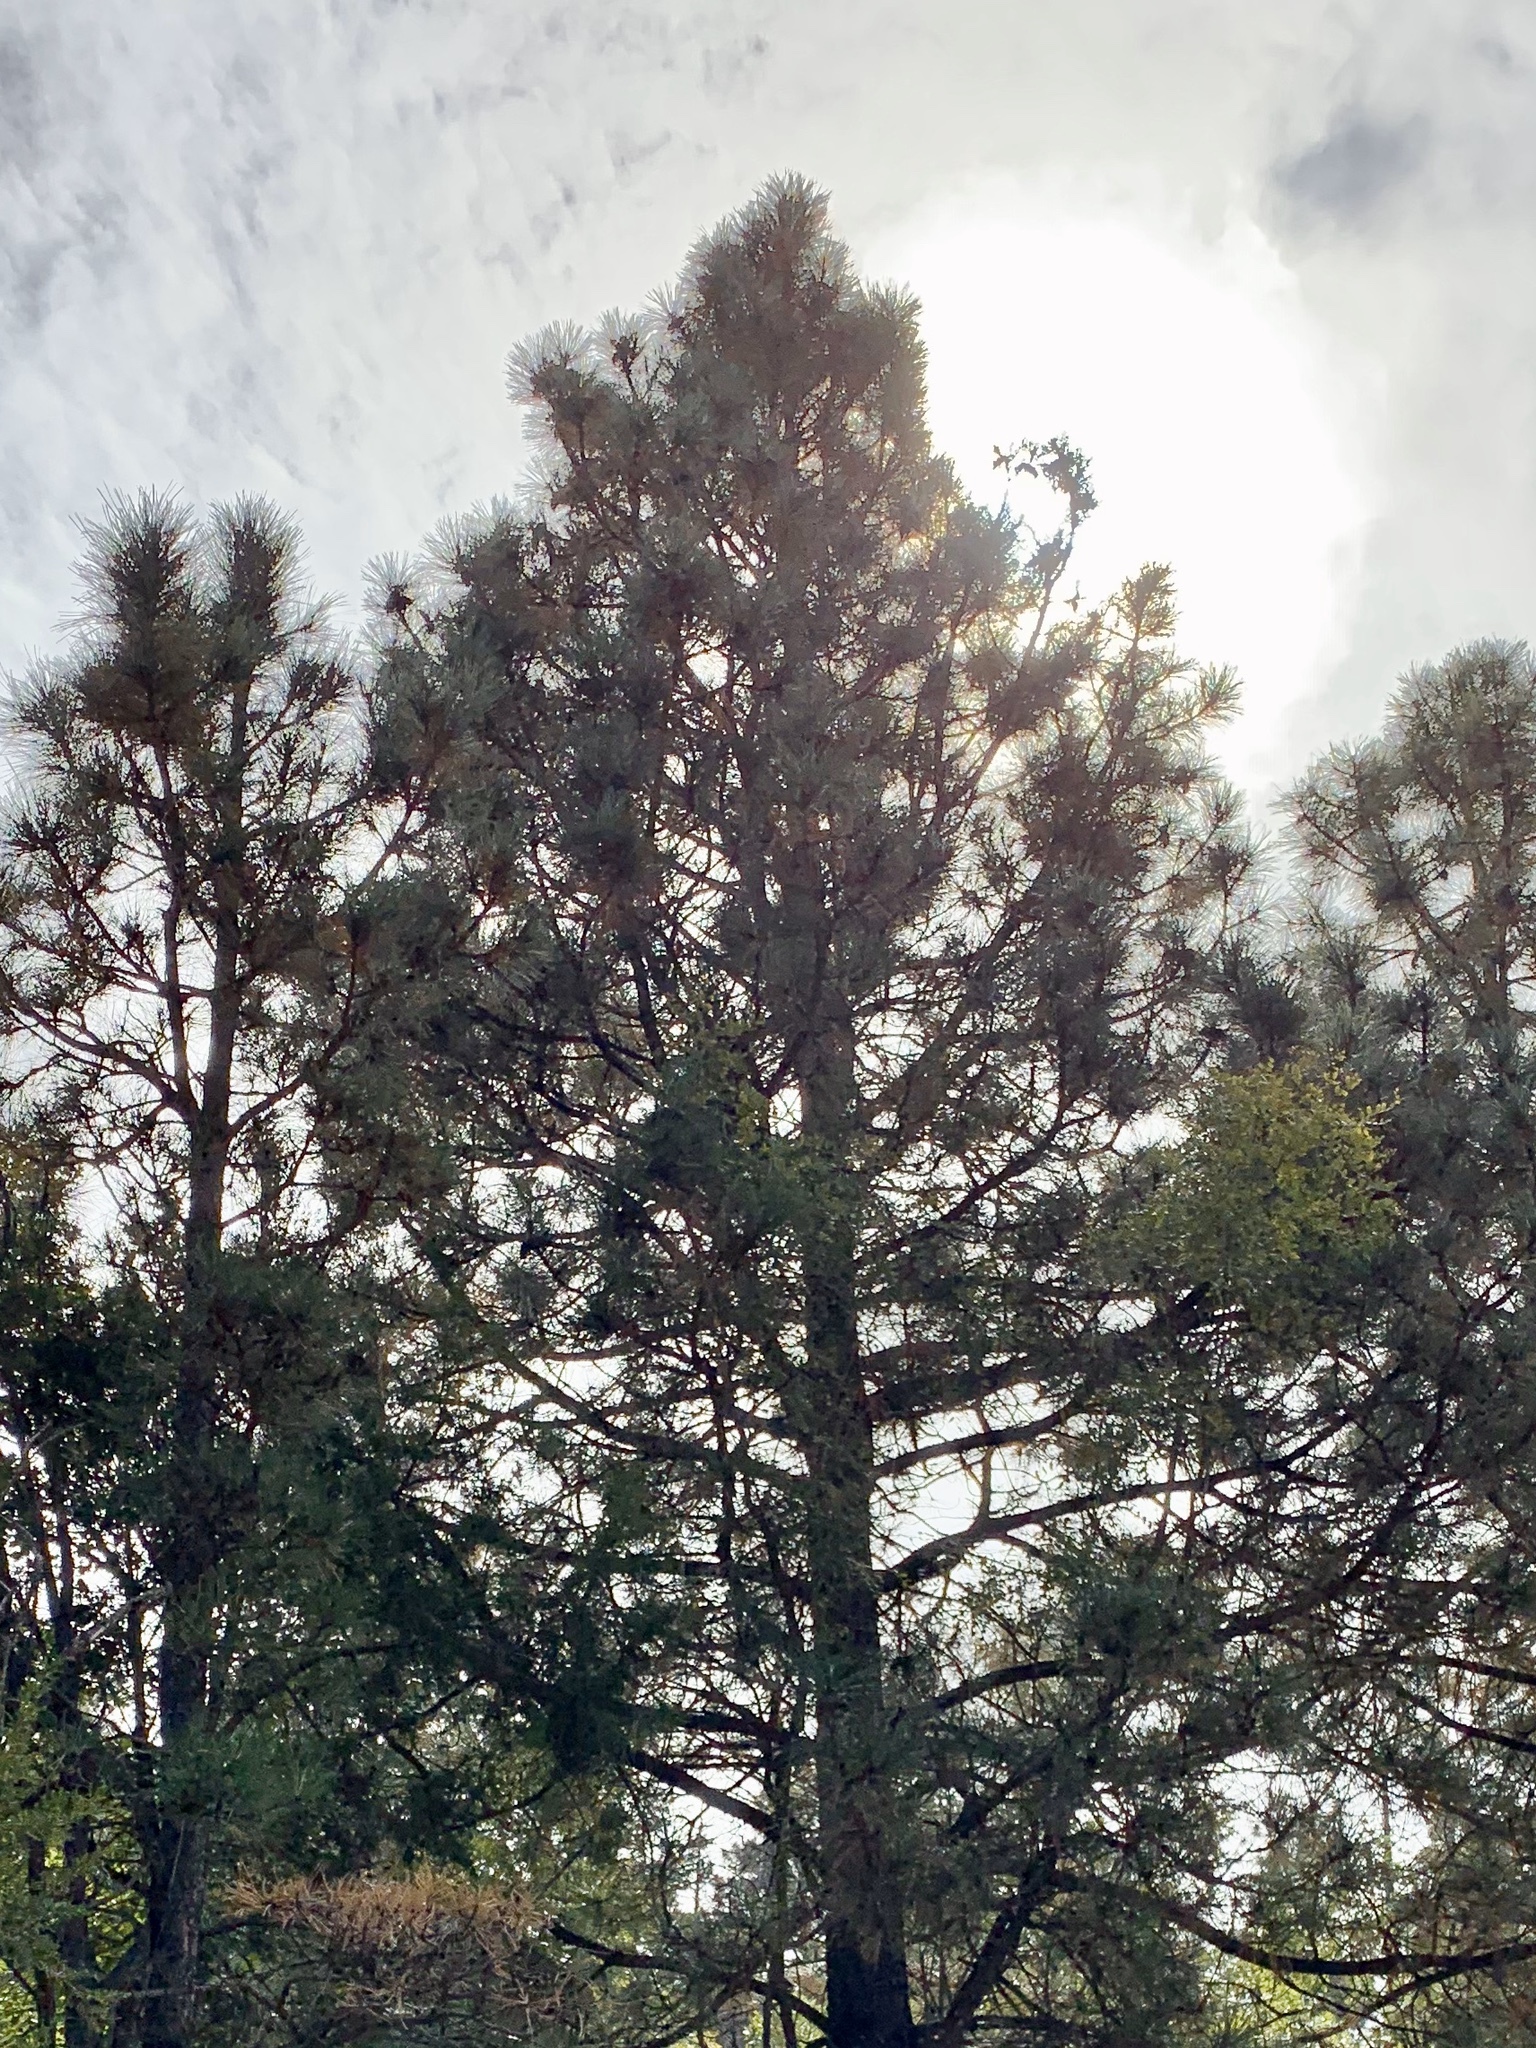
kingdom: Plantae
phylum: Tracheophyta
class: Pinopsida
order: Pinales
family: Pinaceae
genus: Pinus
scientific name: Pinus ponderosa
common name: Western yellow-pine
